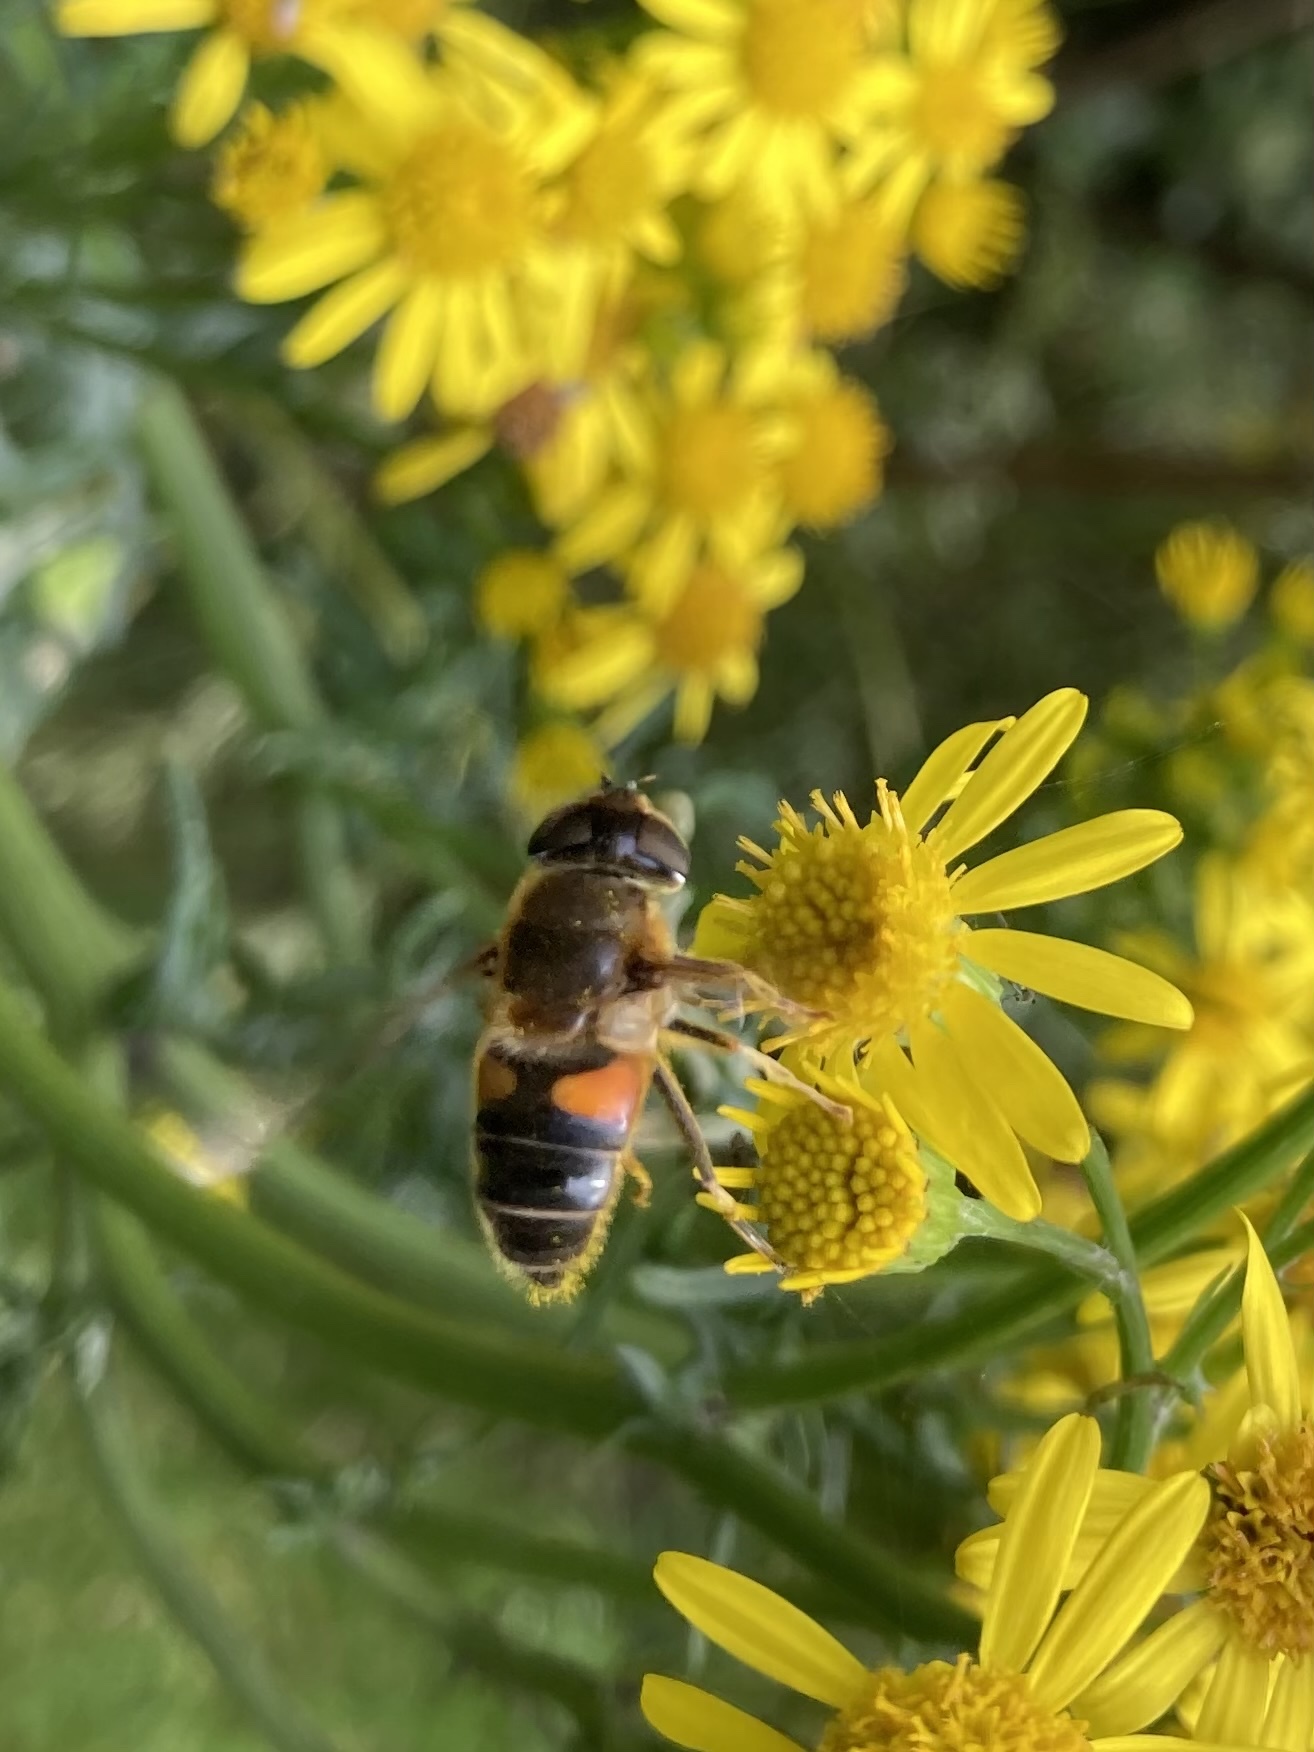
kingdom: Animalia
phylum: Arthropoda
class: Insecta
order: Diptera
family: Syrphidae
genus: Eristalis
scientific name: Eristalis pertinax
